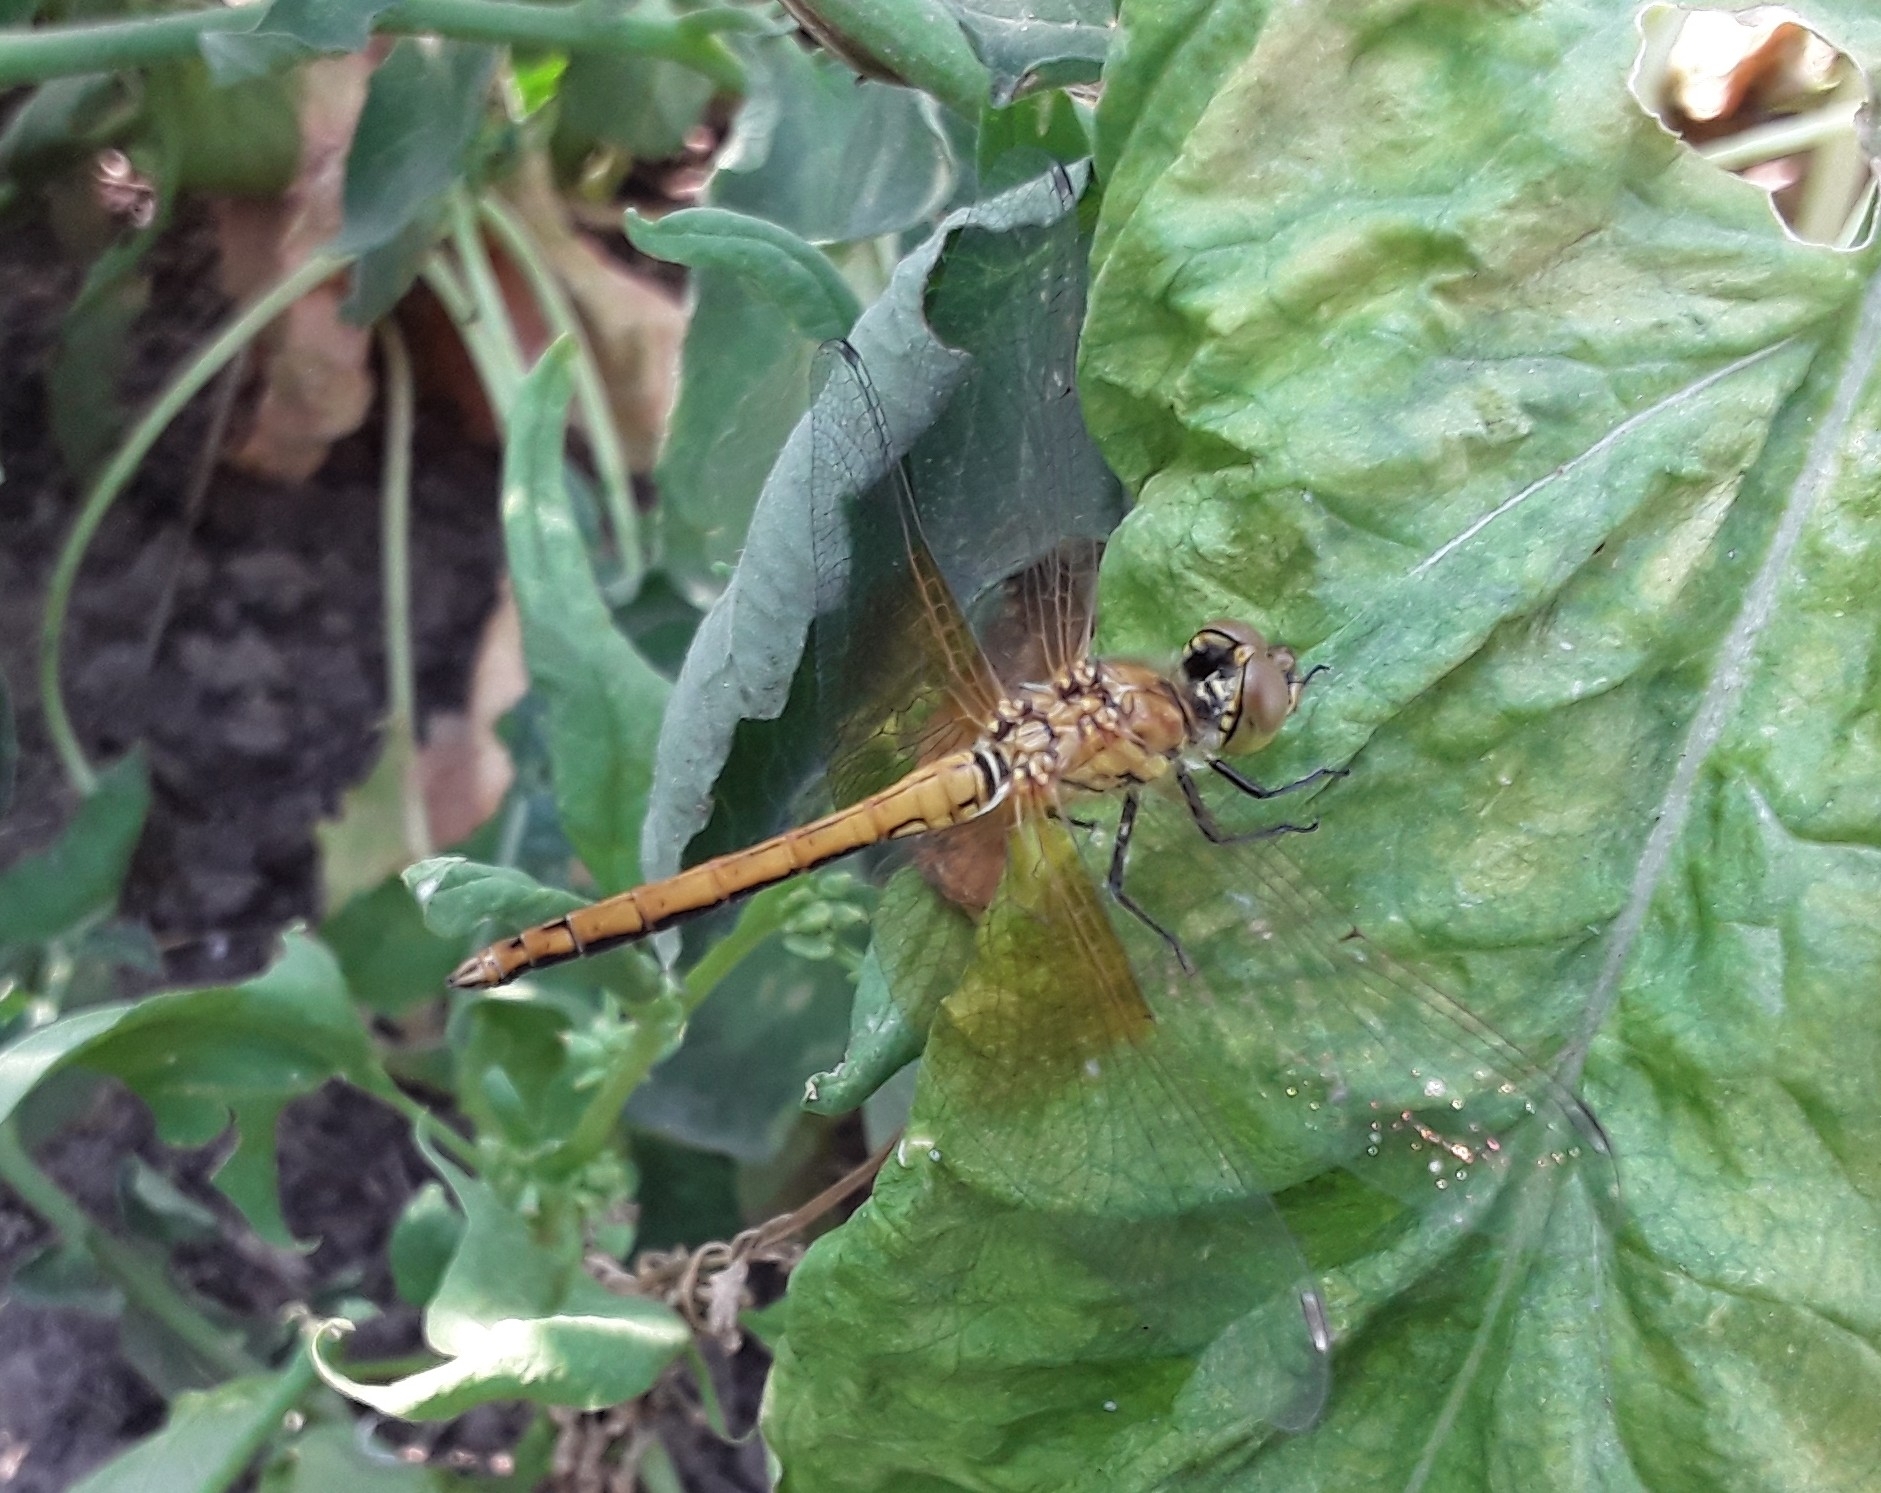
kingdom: Animalia
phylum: Arthropoda
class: Insecta
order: Odonata
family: Libellulidae
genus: Sympetrum
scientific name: Sympetrum semicinctum
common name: Band-winged meadowhawk
